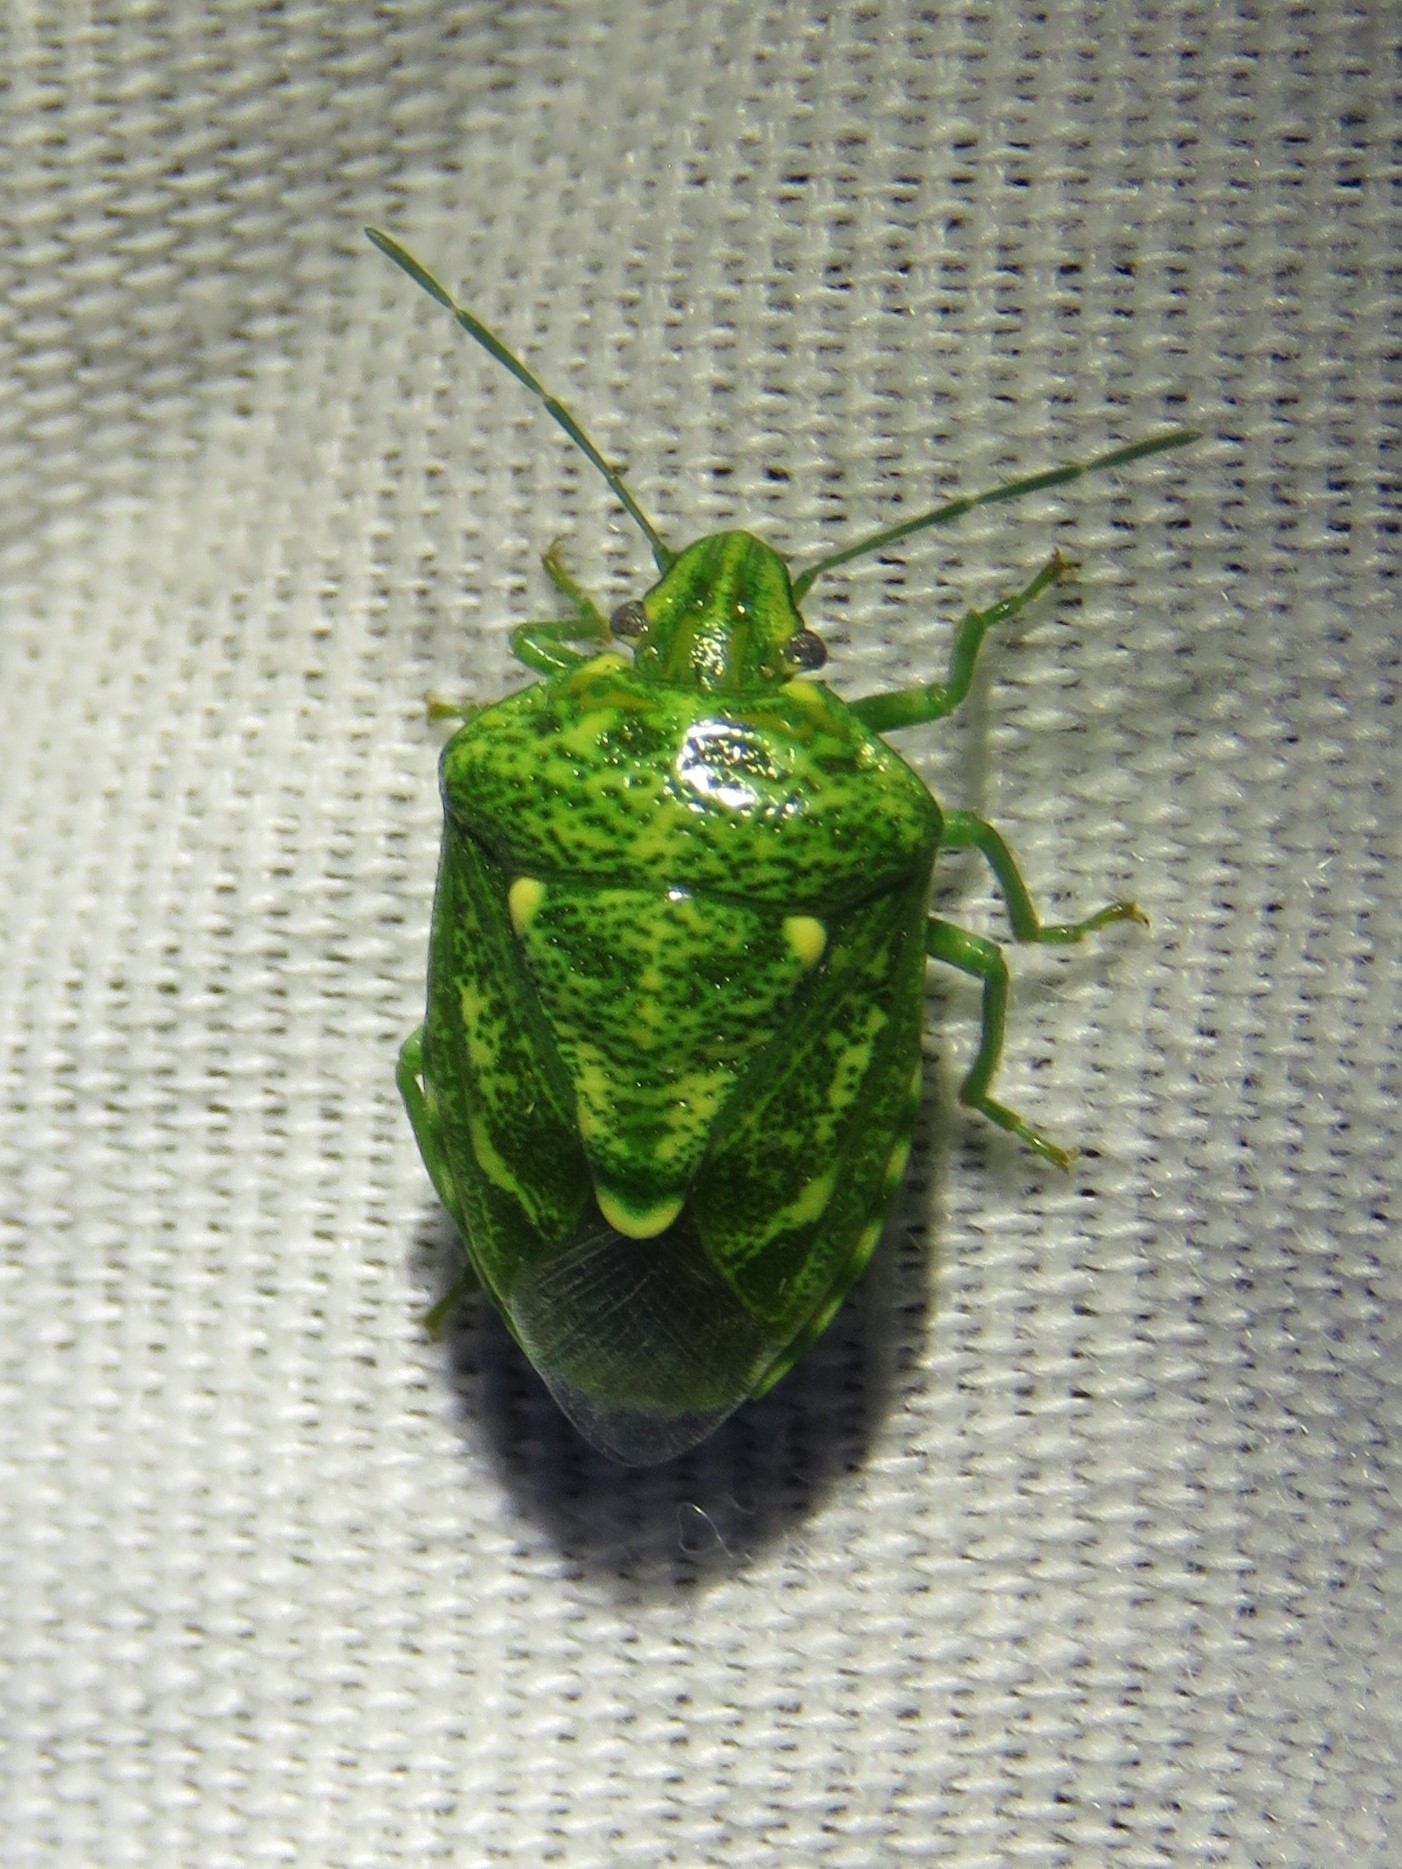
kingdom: Animalia
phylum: Arthropoda
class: Insecta
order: Hemiptera
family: Pentatomidae
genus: Banasa
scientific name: Banasa euchlora
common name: Cedar berry bug
